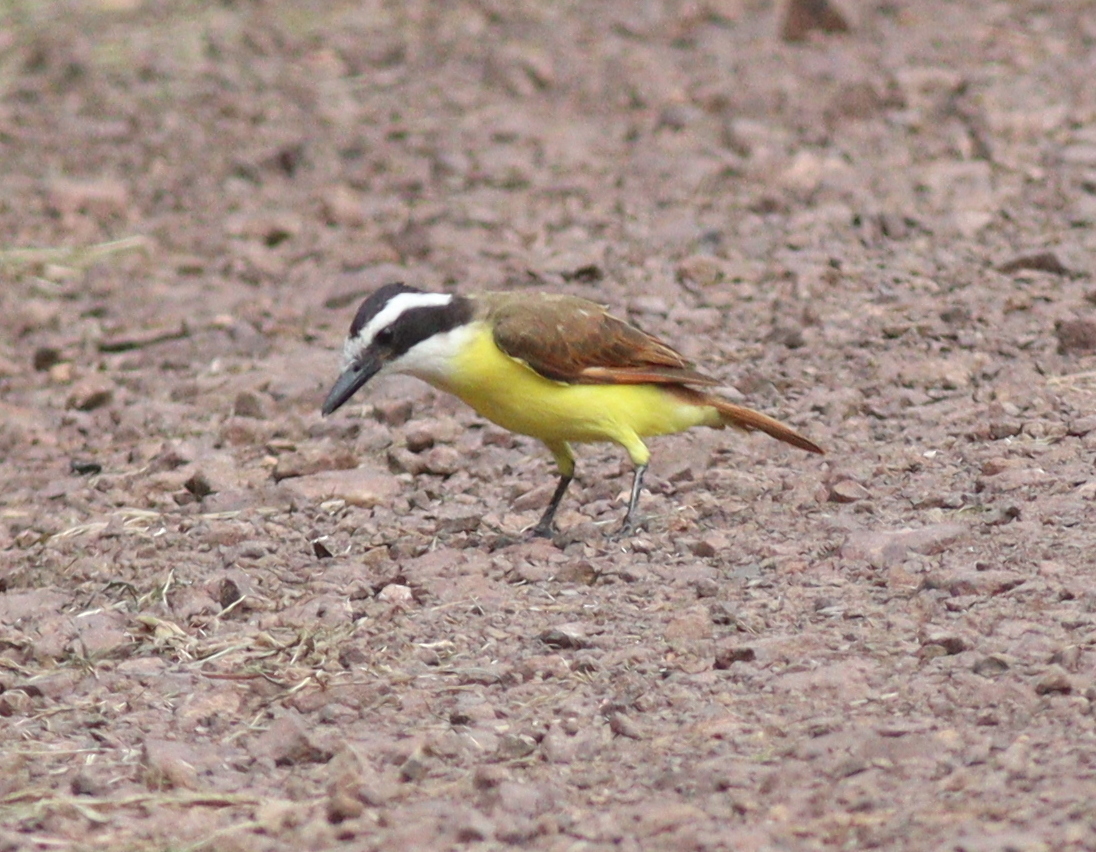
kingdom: Animalia
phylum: Chordata
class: Aves
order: Passeriformes
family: Tyrannidae
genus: Pitangus
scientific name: Pitangus sulphuratus
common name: Great kiskadee
